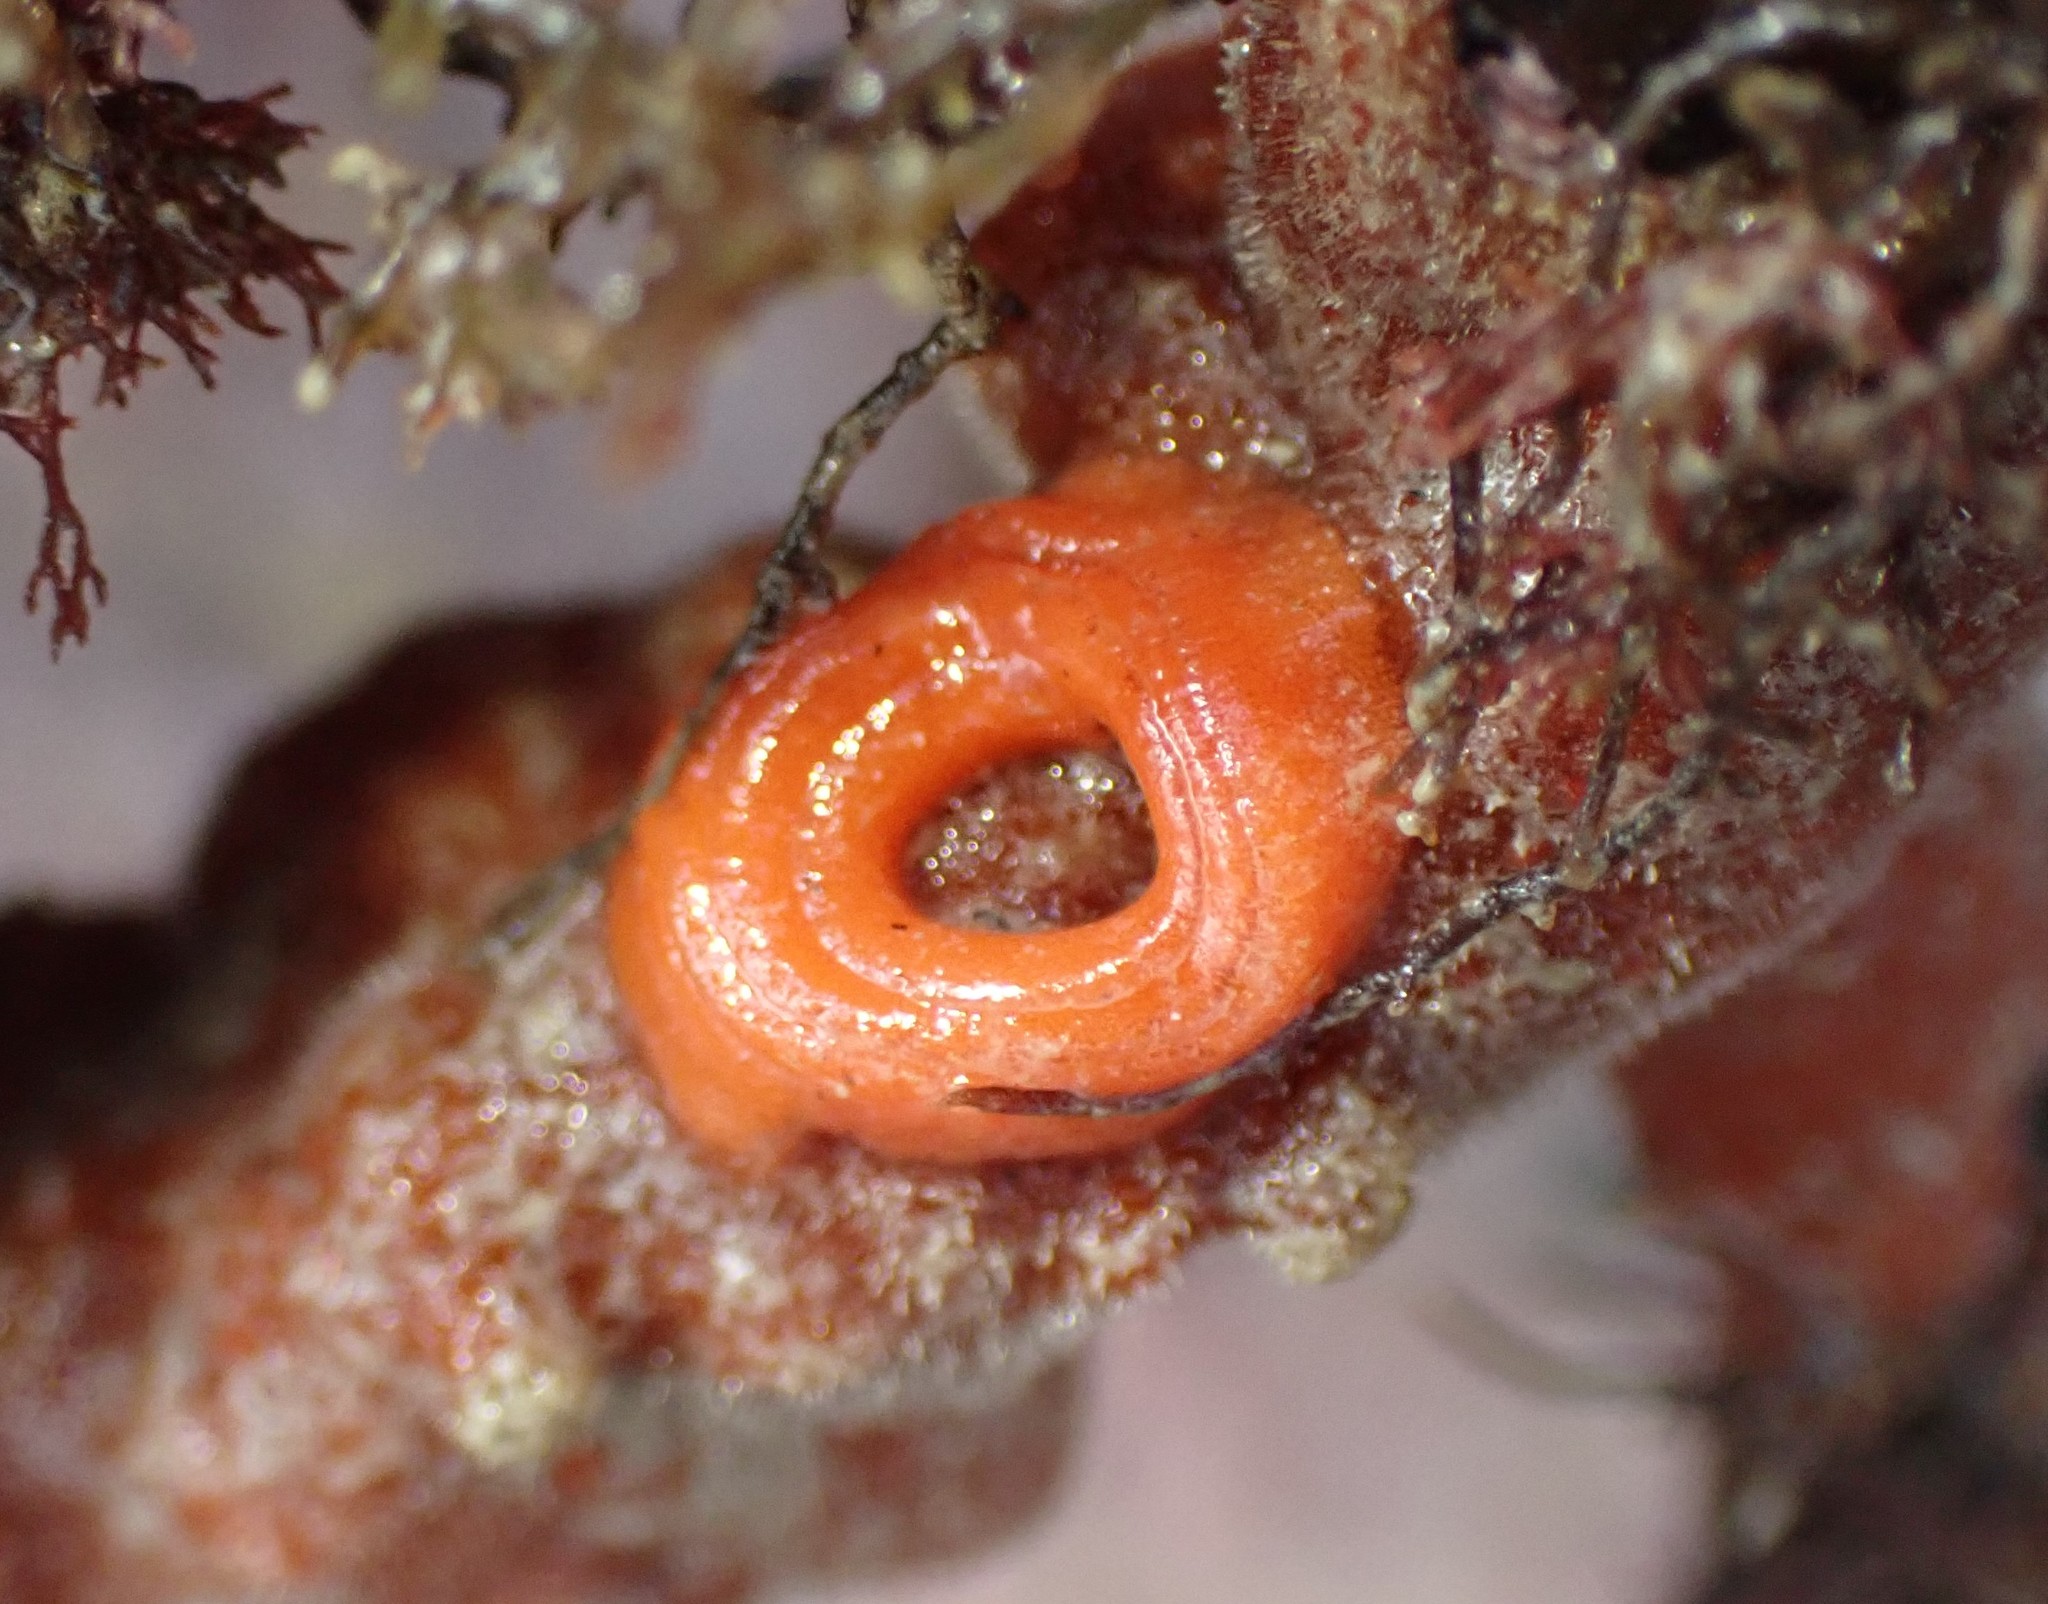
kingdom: Animalia
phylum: Mollusca
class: Gastropoda
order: Nudibranchia
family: Discodorididae
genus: Rostanga
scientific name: Rostanga muscula
